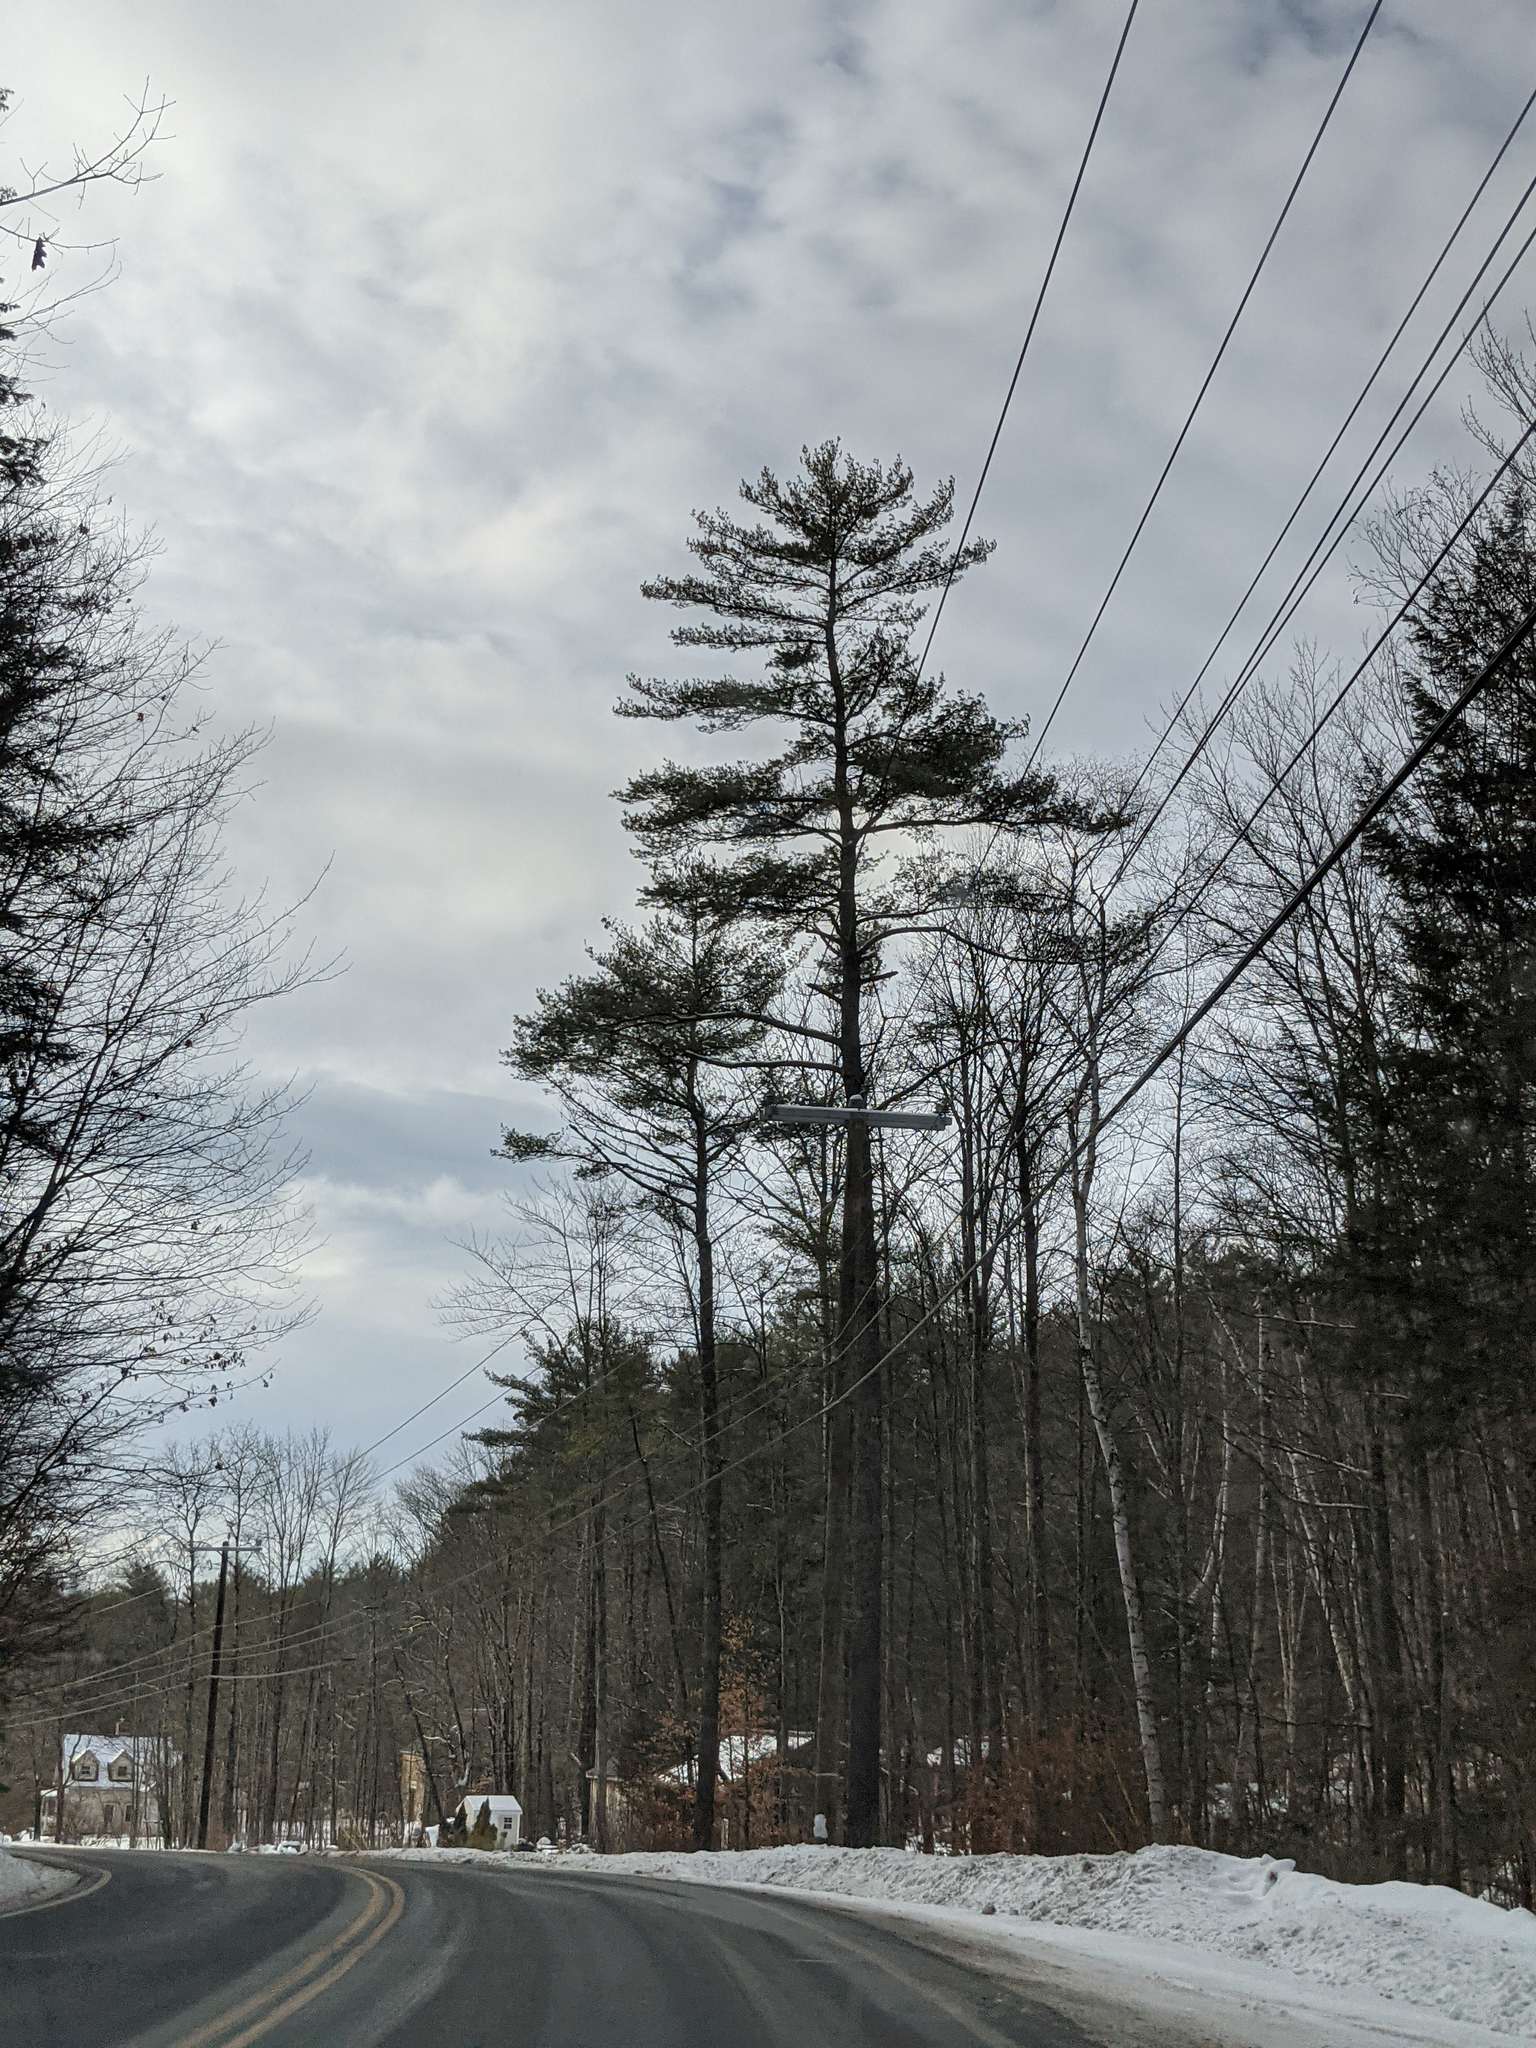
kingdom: Plantae
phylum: Tracheophyta
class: Pinopsida
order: Pinales
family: Pinaceae
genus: Pinus
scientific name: Pinus strobus
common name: Weymouth pine
